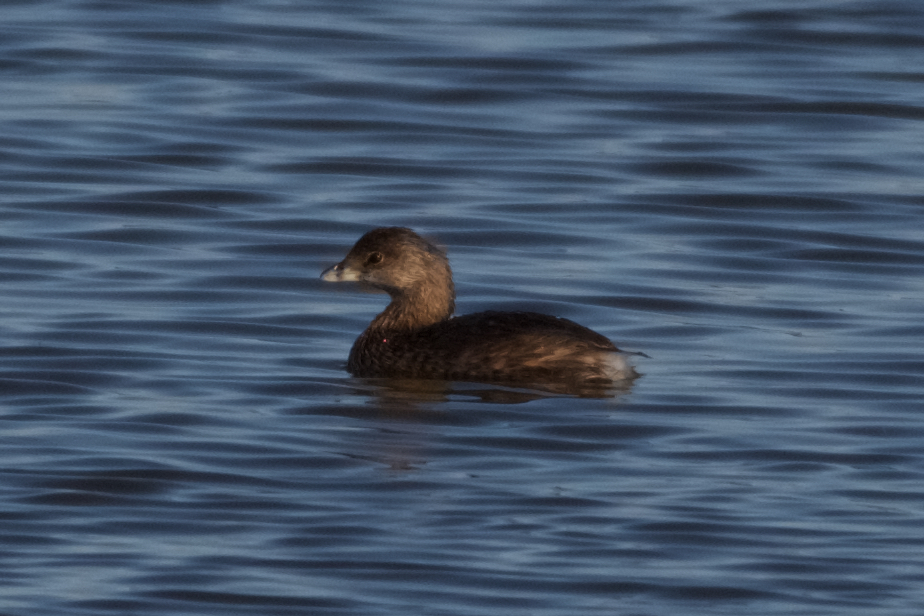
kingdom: Animalia
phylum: Chordata
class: Aves
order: Podicipediformes
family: Podicipedidae
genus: Podilymbus
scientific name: Podilymbus podiceps
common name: Pied-billed grebe
